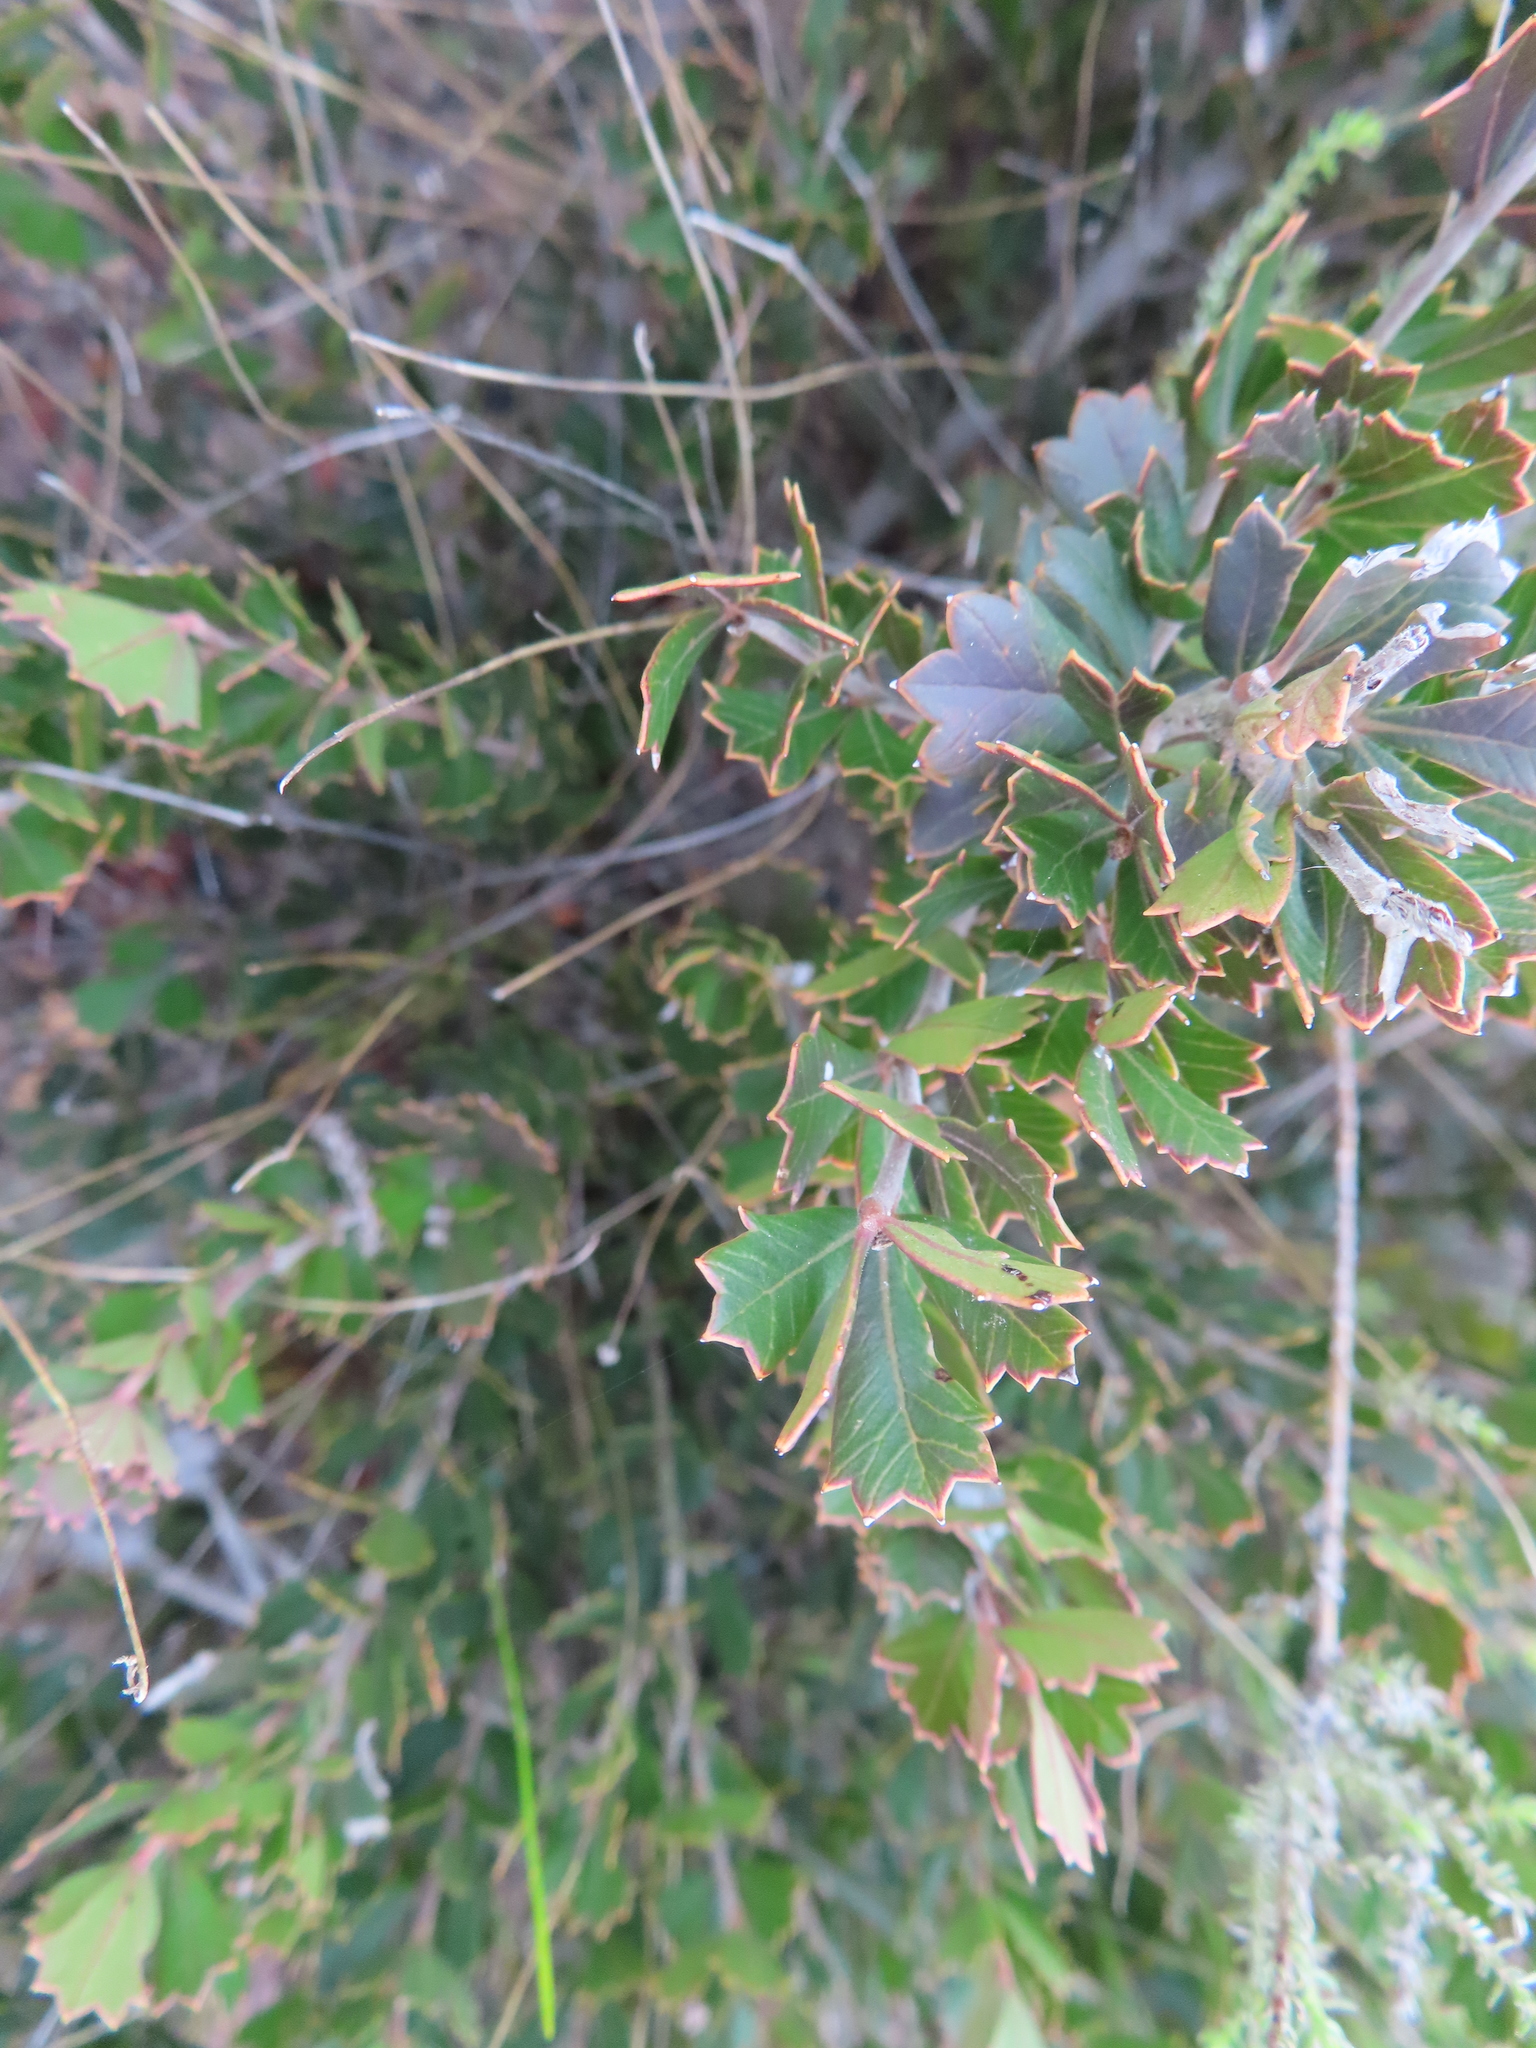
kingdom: Plantae
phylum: Tracheophyta
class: Magnoliopsida
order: Sapindales
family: Anacardiaceae
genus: Searsia
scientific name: Searsia cuneifolia
